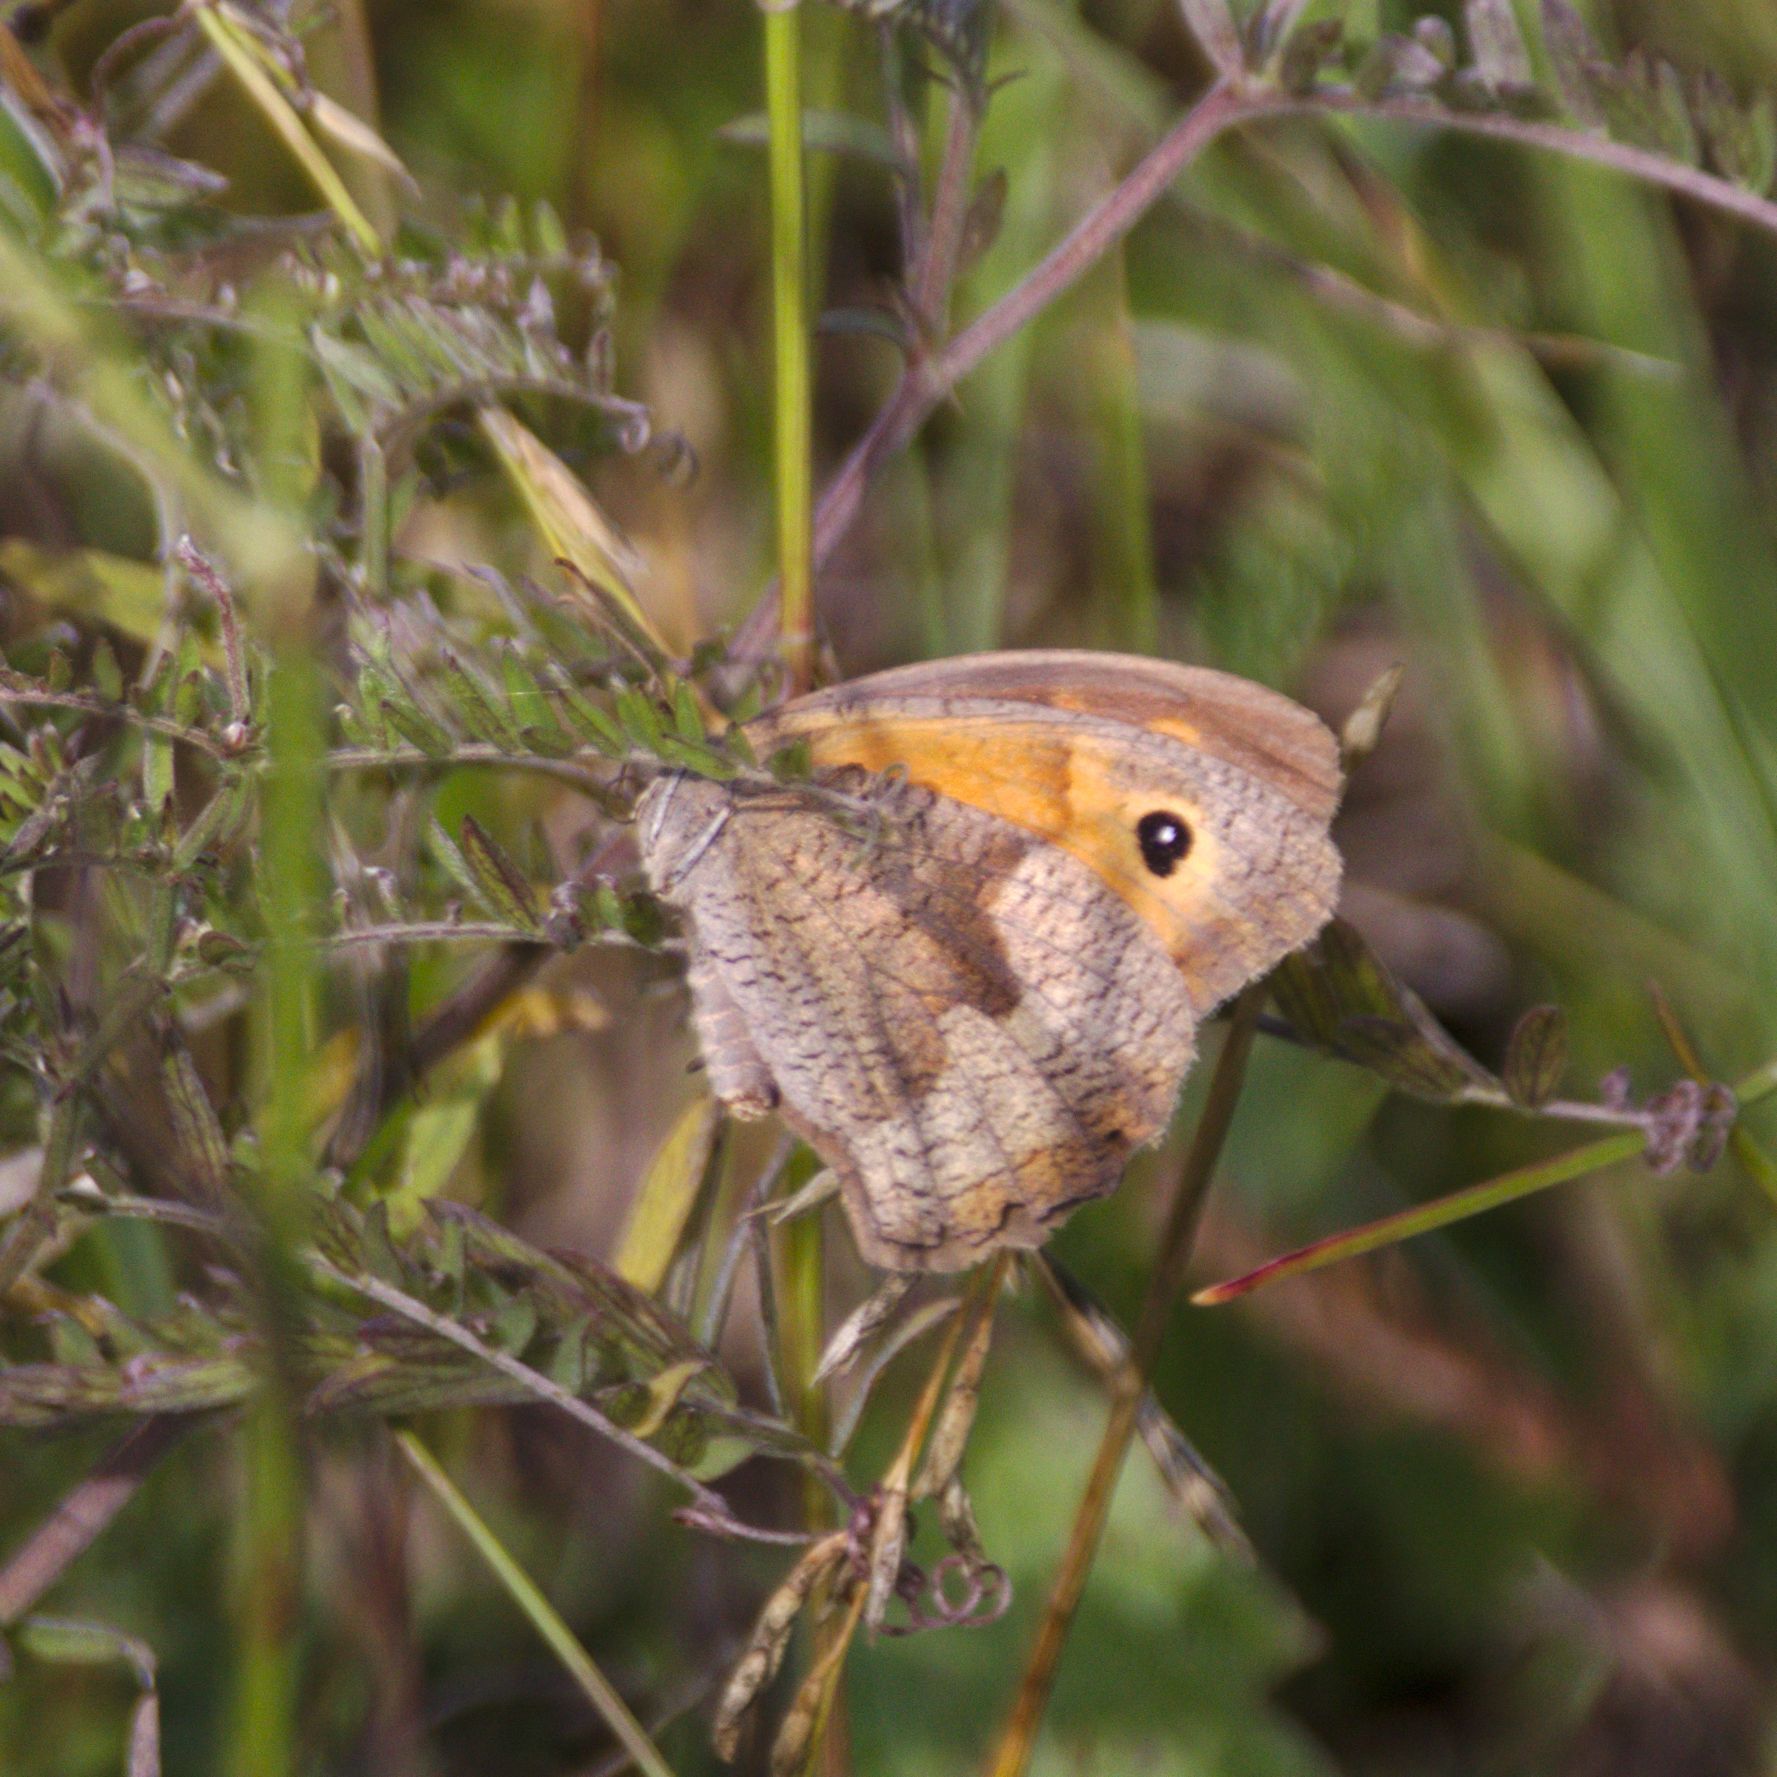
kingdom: Animalia
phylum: Arthropoda
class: Insecta
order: Lepidoptera
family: Nymphalidae
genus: Maniola
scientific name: Maniola jurtina
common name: Meadow brown
